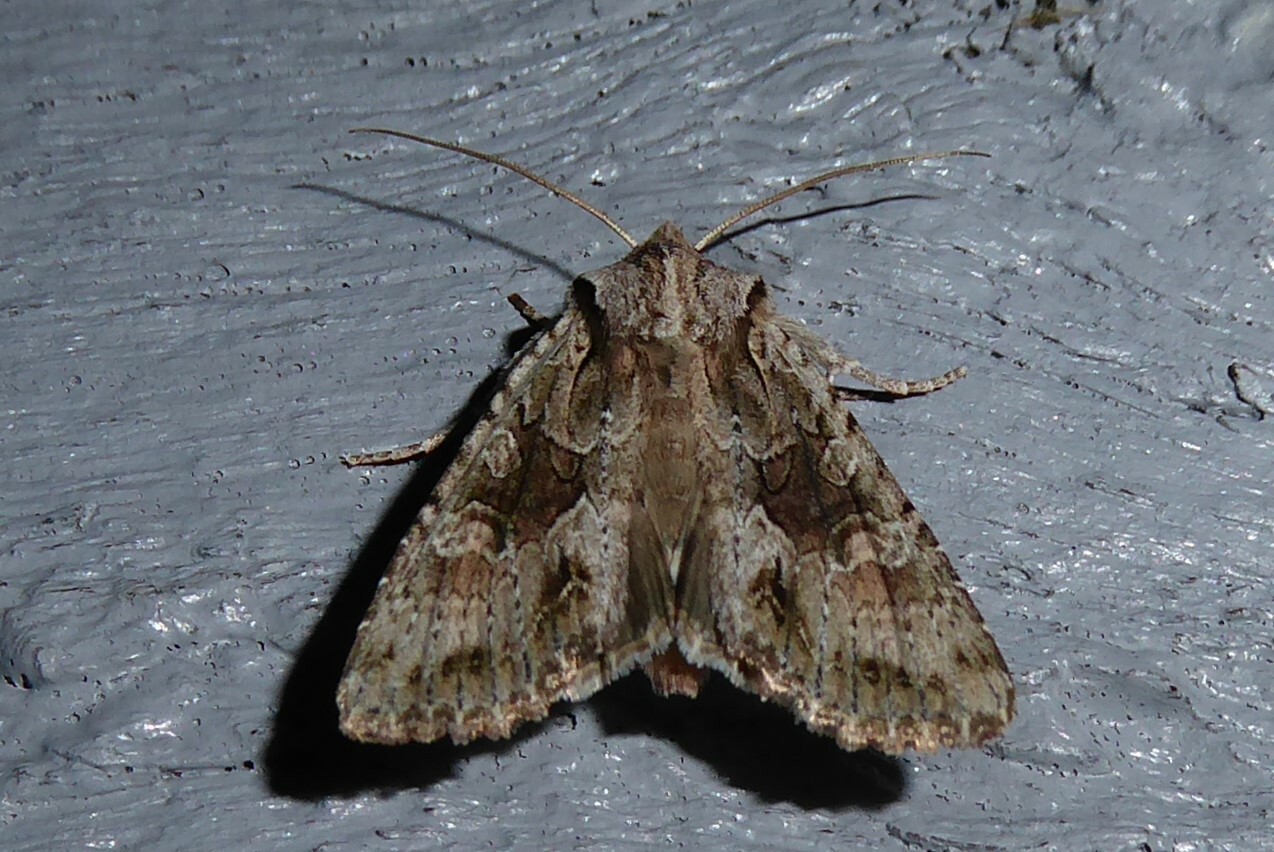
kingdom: Animalia
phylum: Arthropoda
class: Insecta
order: Lepidoptera
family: Noctuidae
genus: Ichneutica
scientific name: Ichneutica mutans
